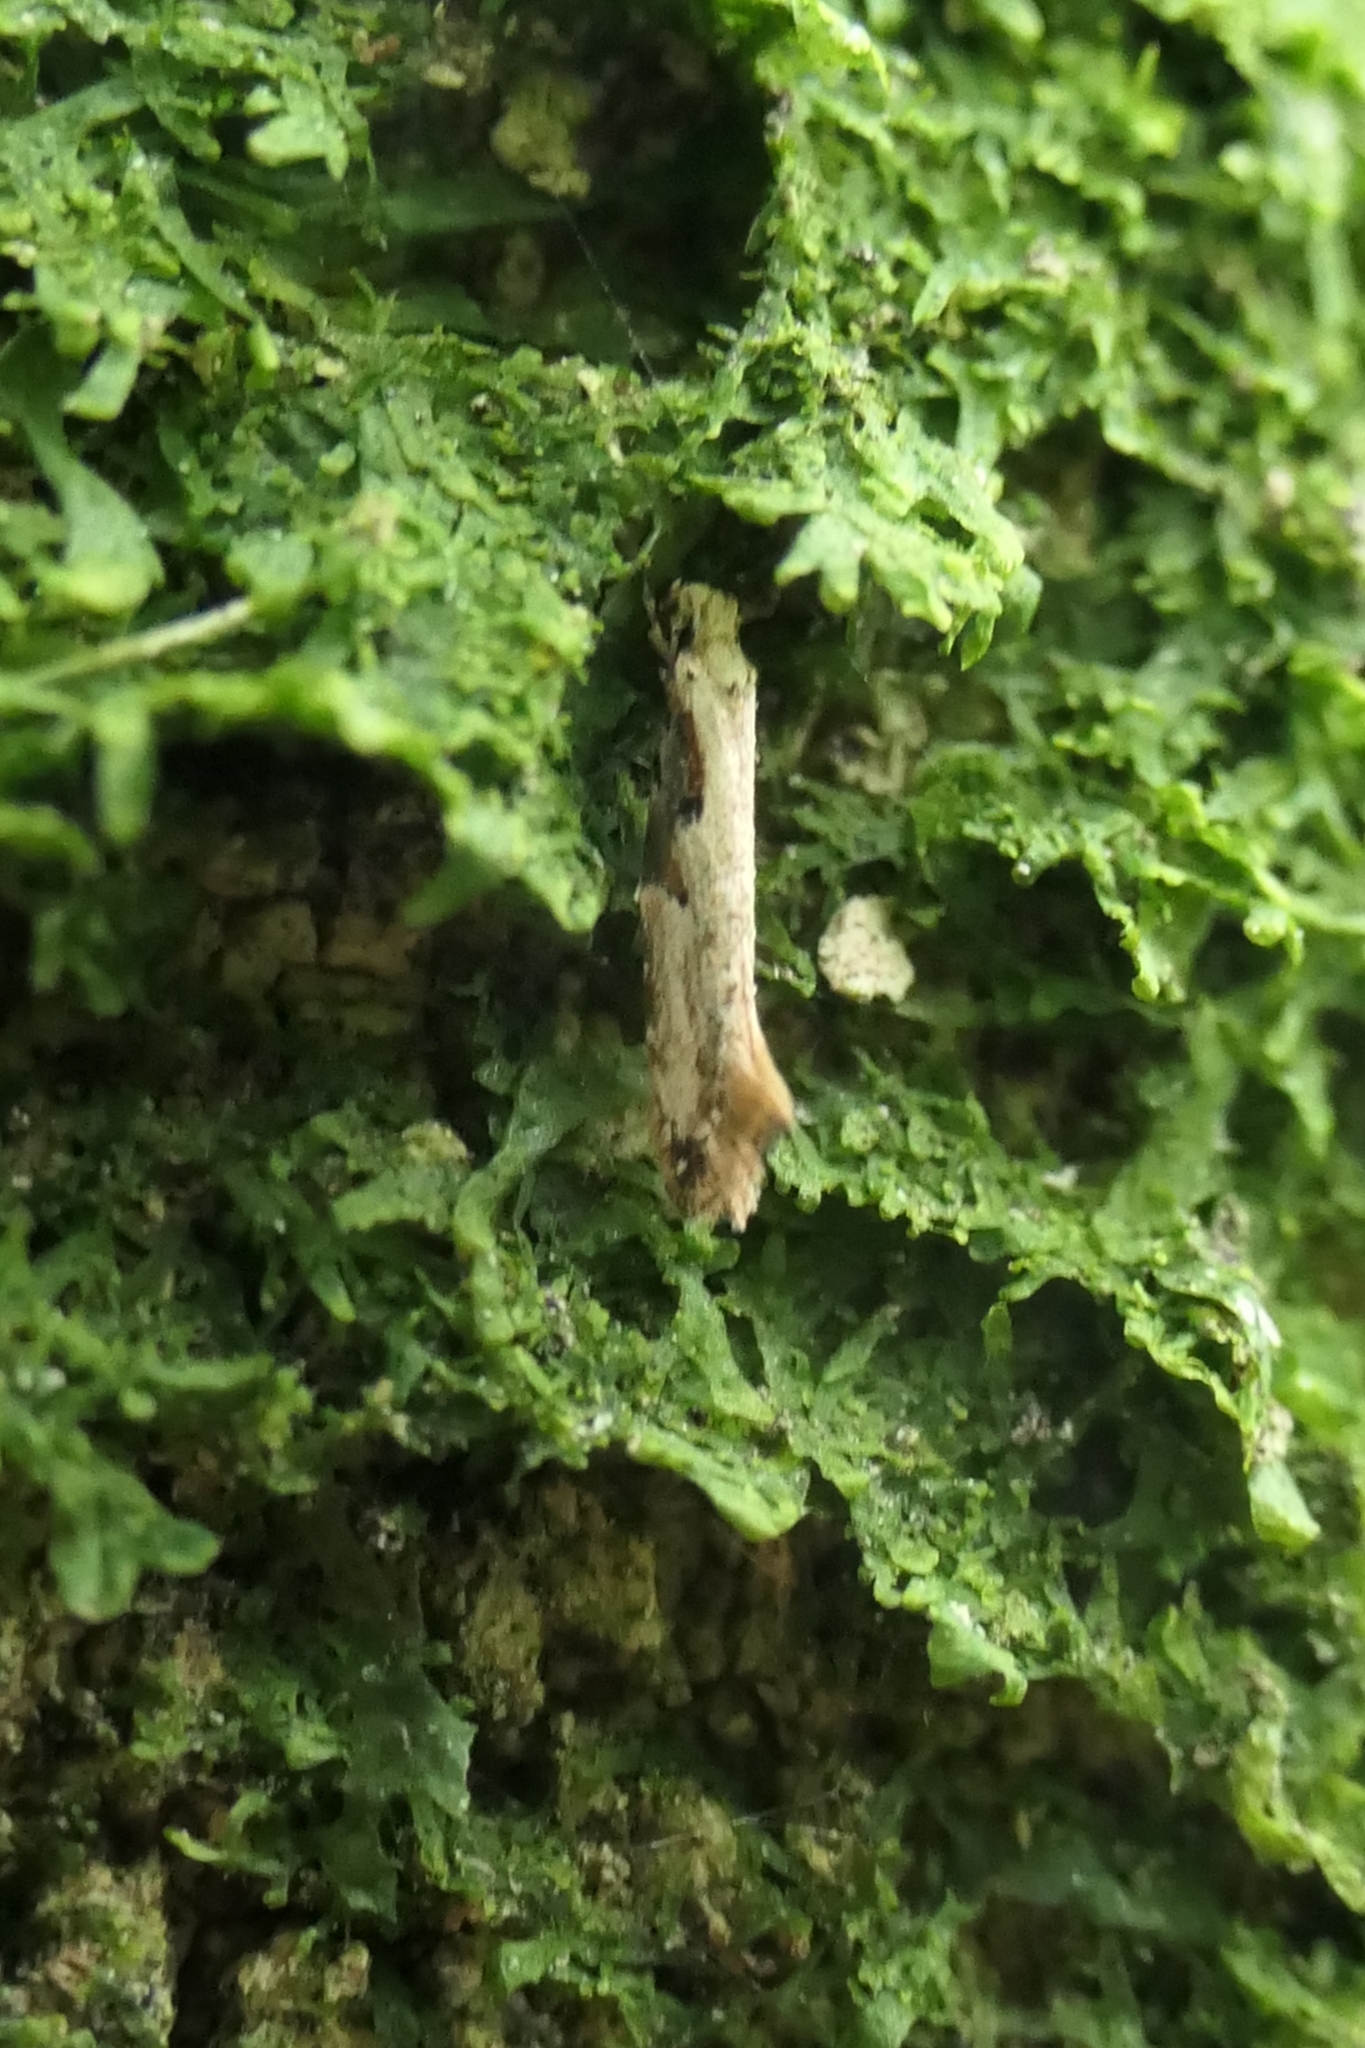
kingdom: Animalia
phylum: Arthropoda
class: Insecta
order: Lepidoptera
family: Tineidae
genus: Crypsitricha
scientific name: Crypsitricha pharotoma
